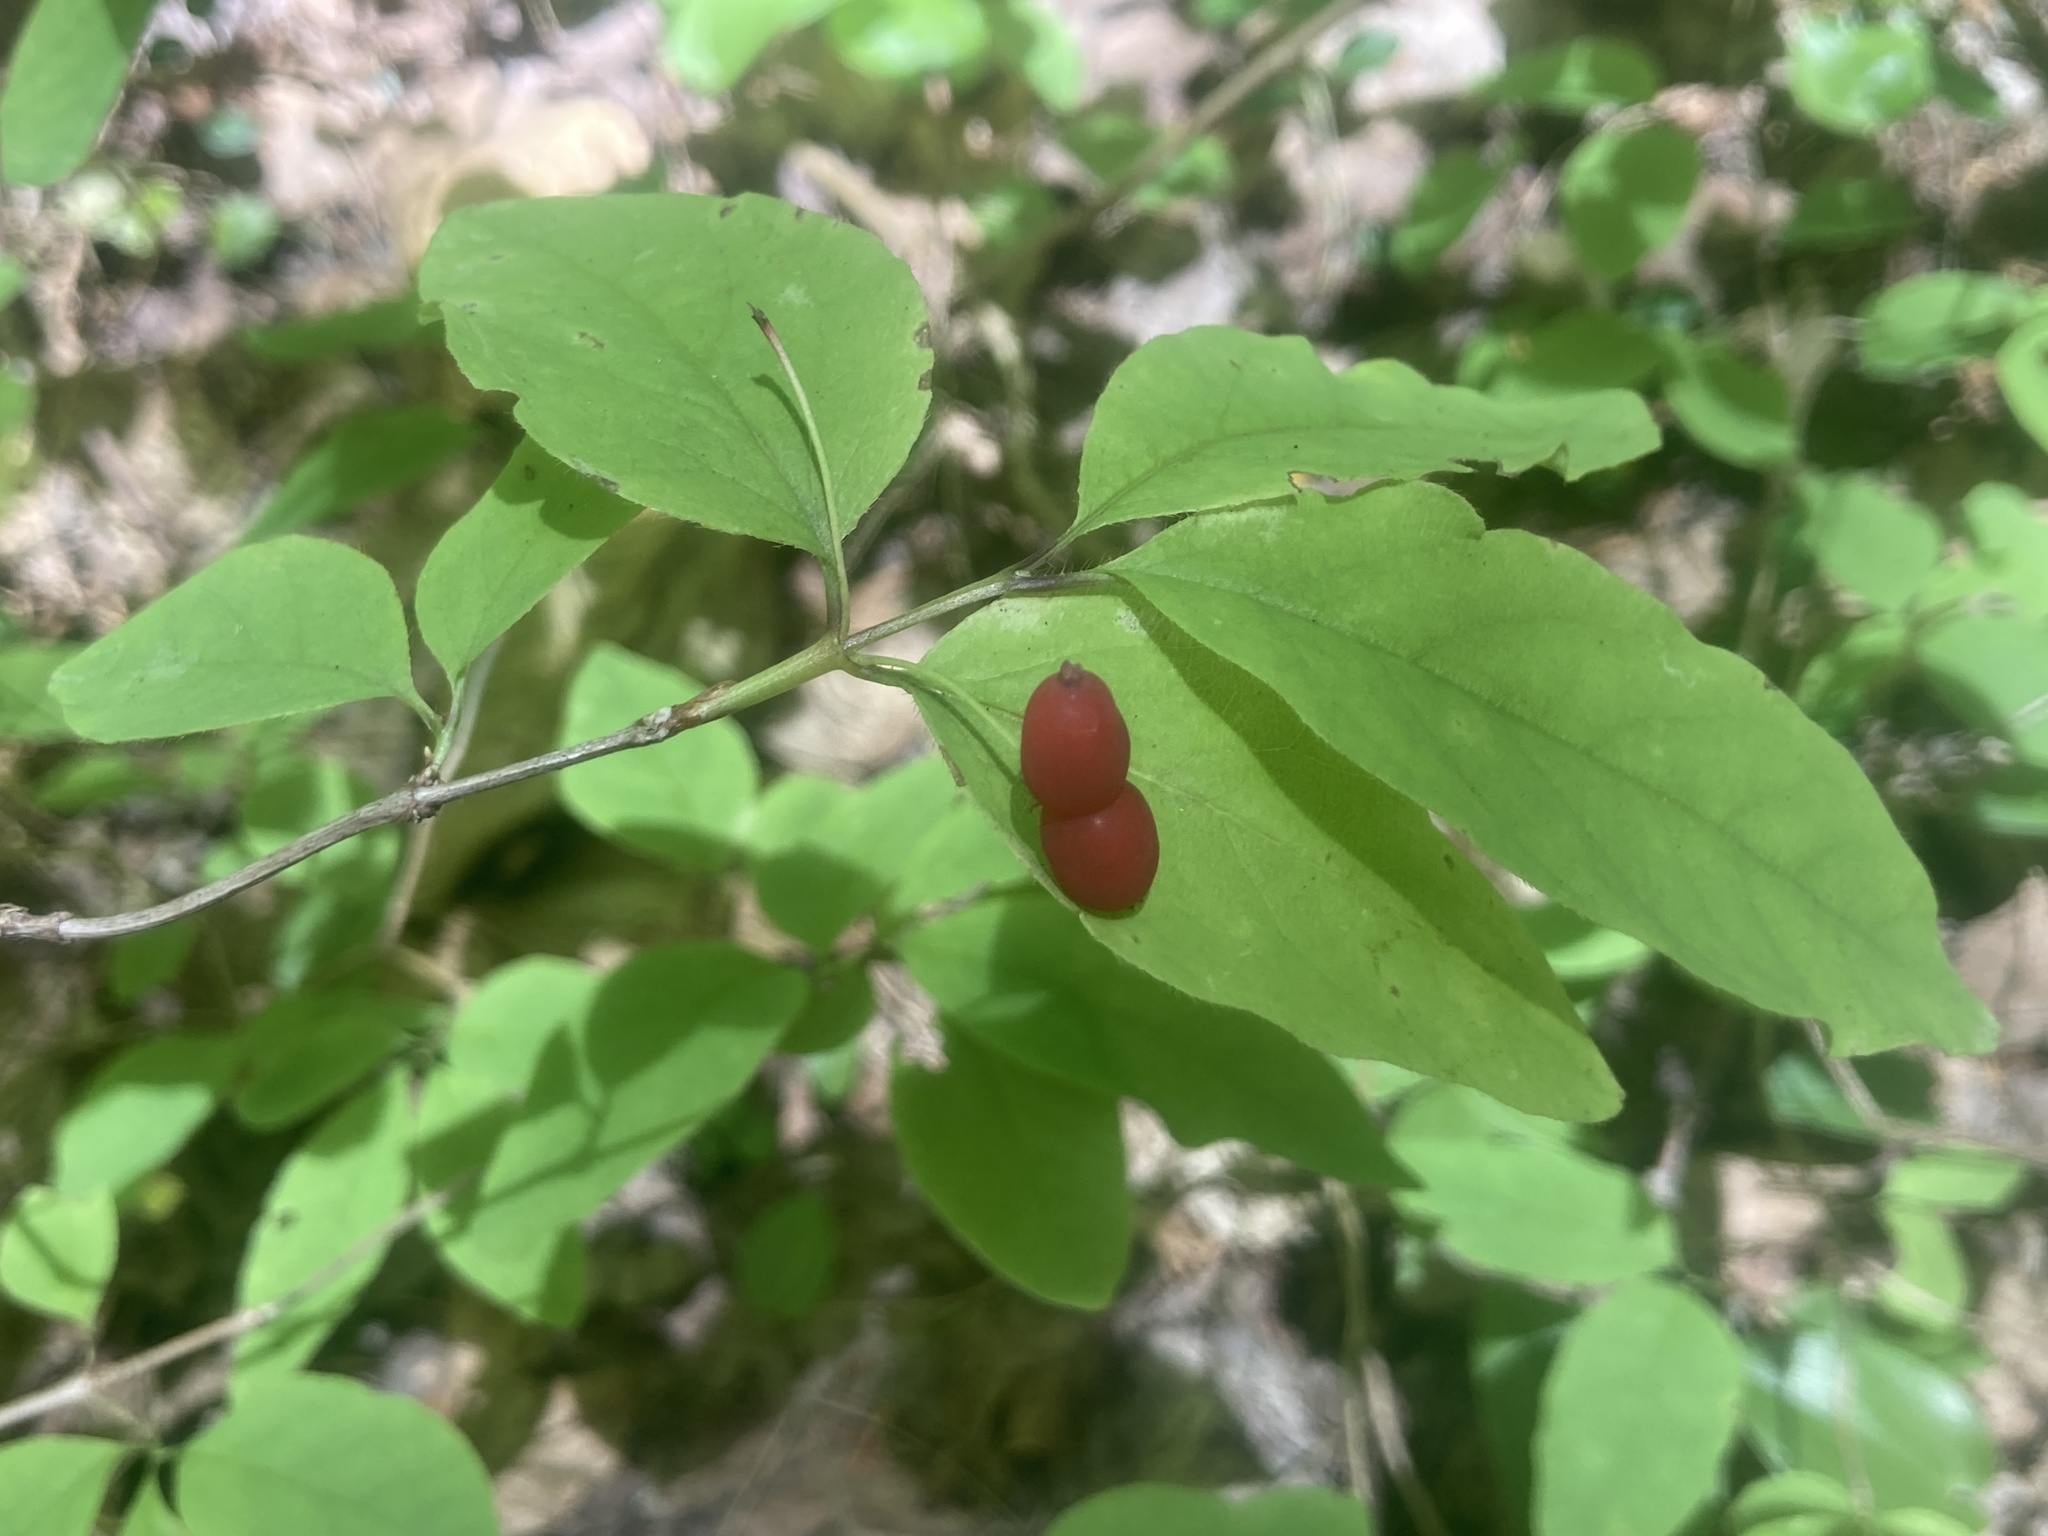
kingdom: Plantae
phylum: Tracheophyta
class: Magnoliopsida
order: Dipsacales
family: Caprifoliaceae
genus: Lonicera
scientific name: Lonicera canadensis
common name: American fly-honeysuckle
